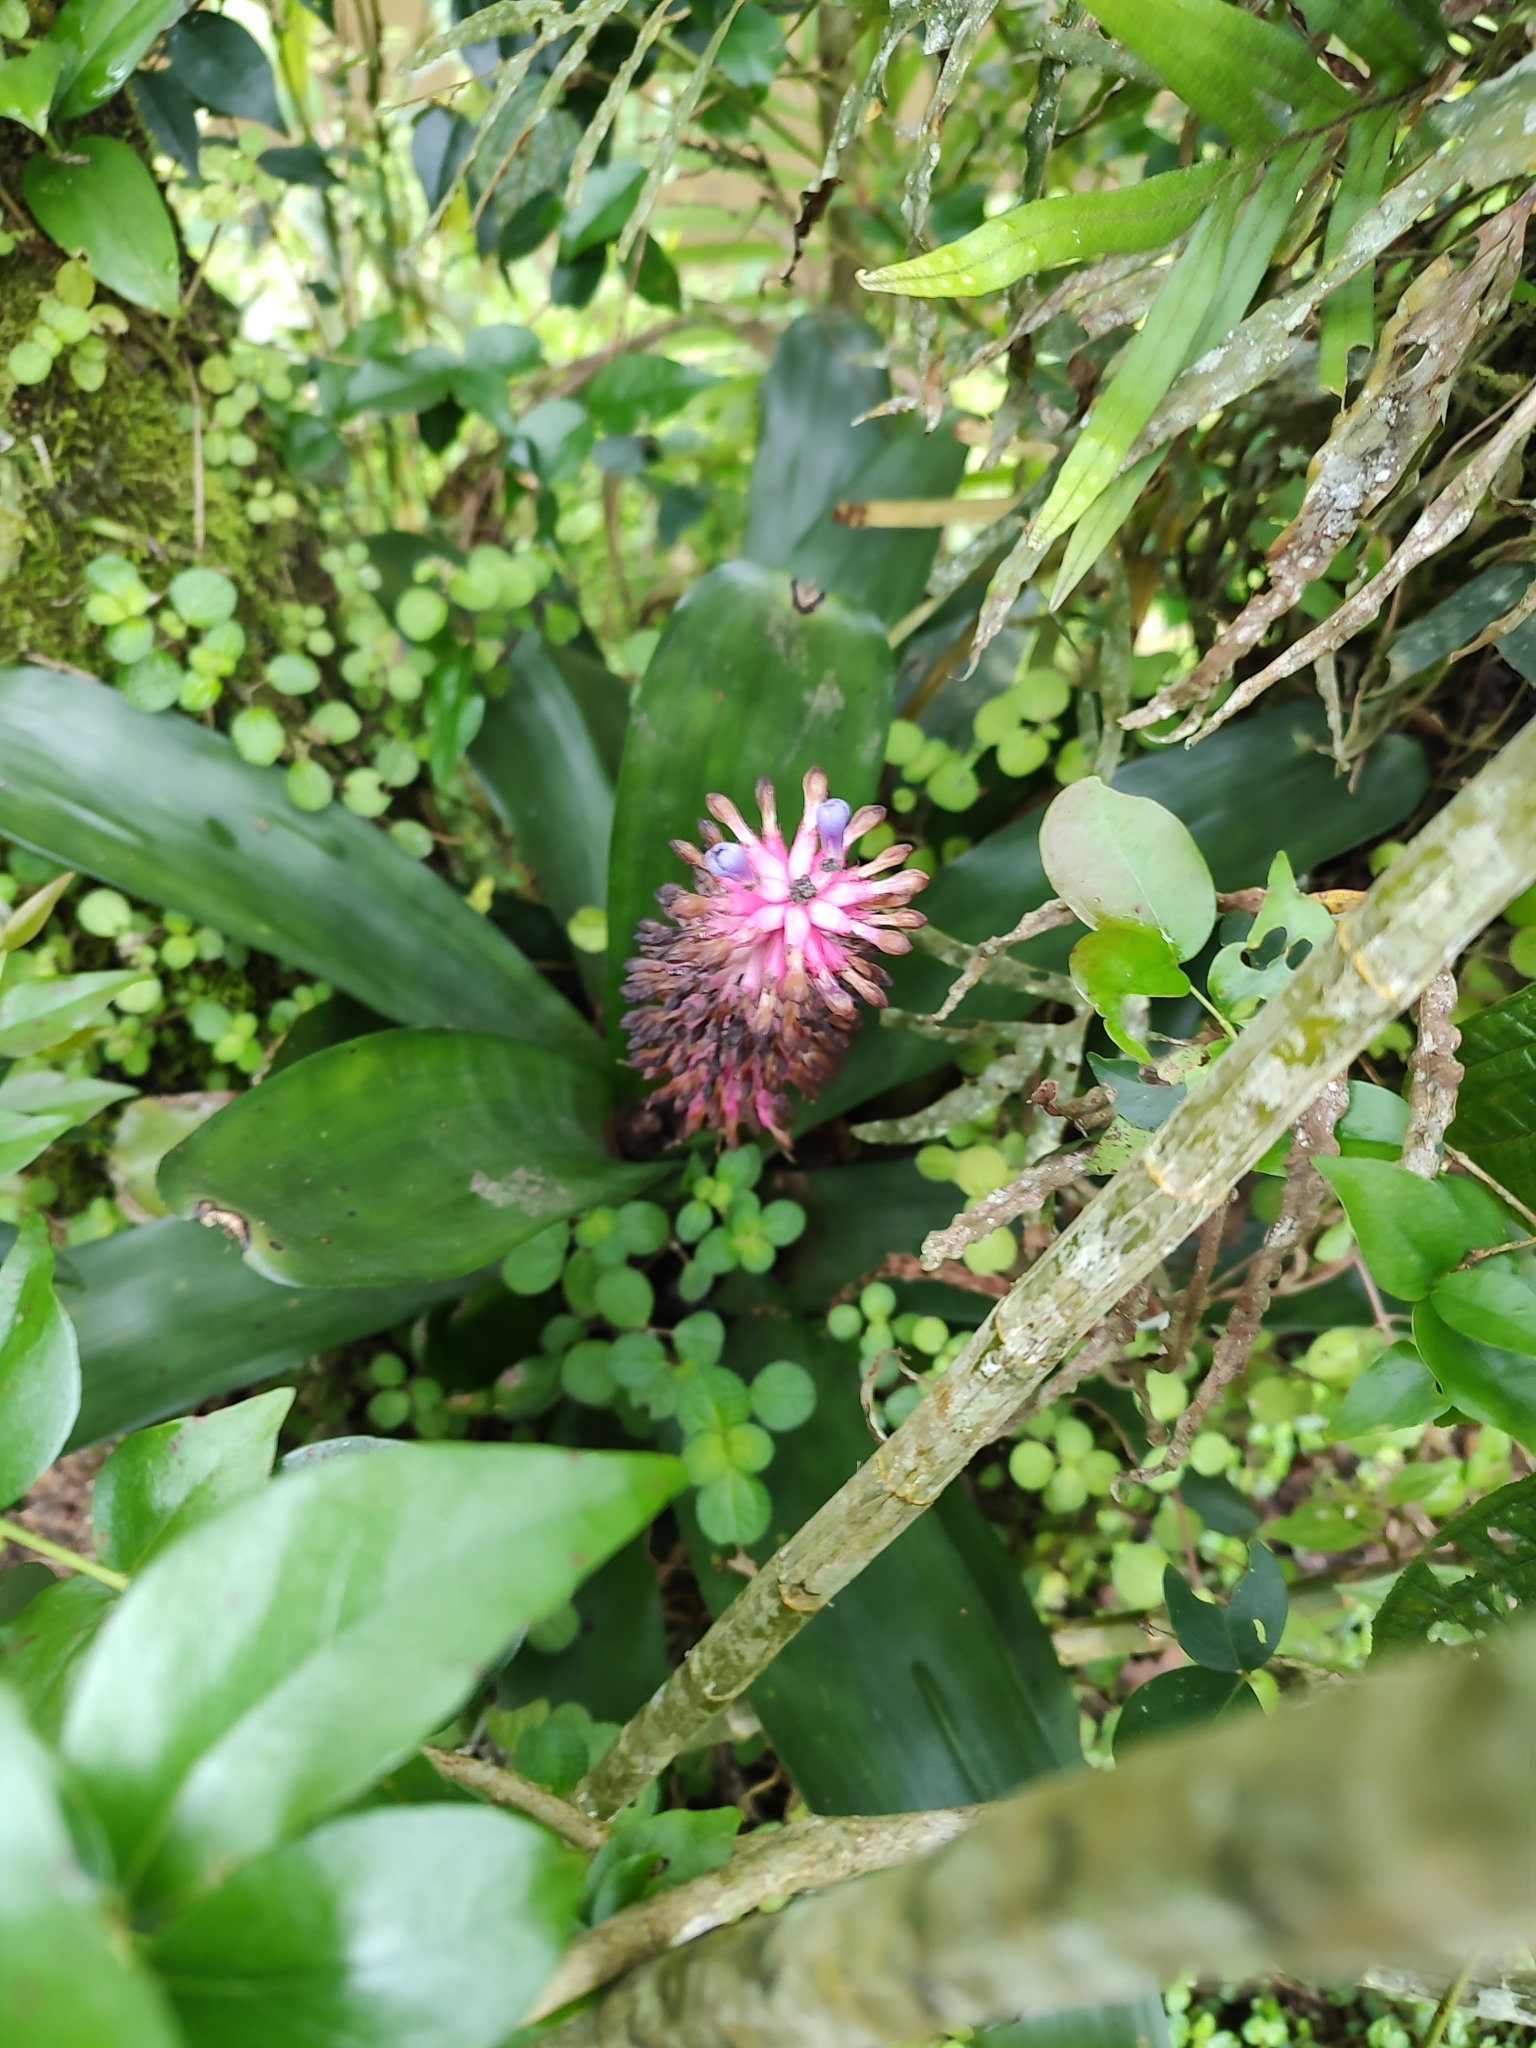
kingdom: Plantae
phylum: Tracheophyta
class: Liliopsida
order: Poales
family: Bromeliaceae
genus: Aechmea
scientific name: Aechmea cylindrata
